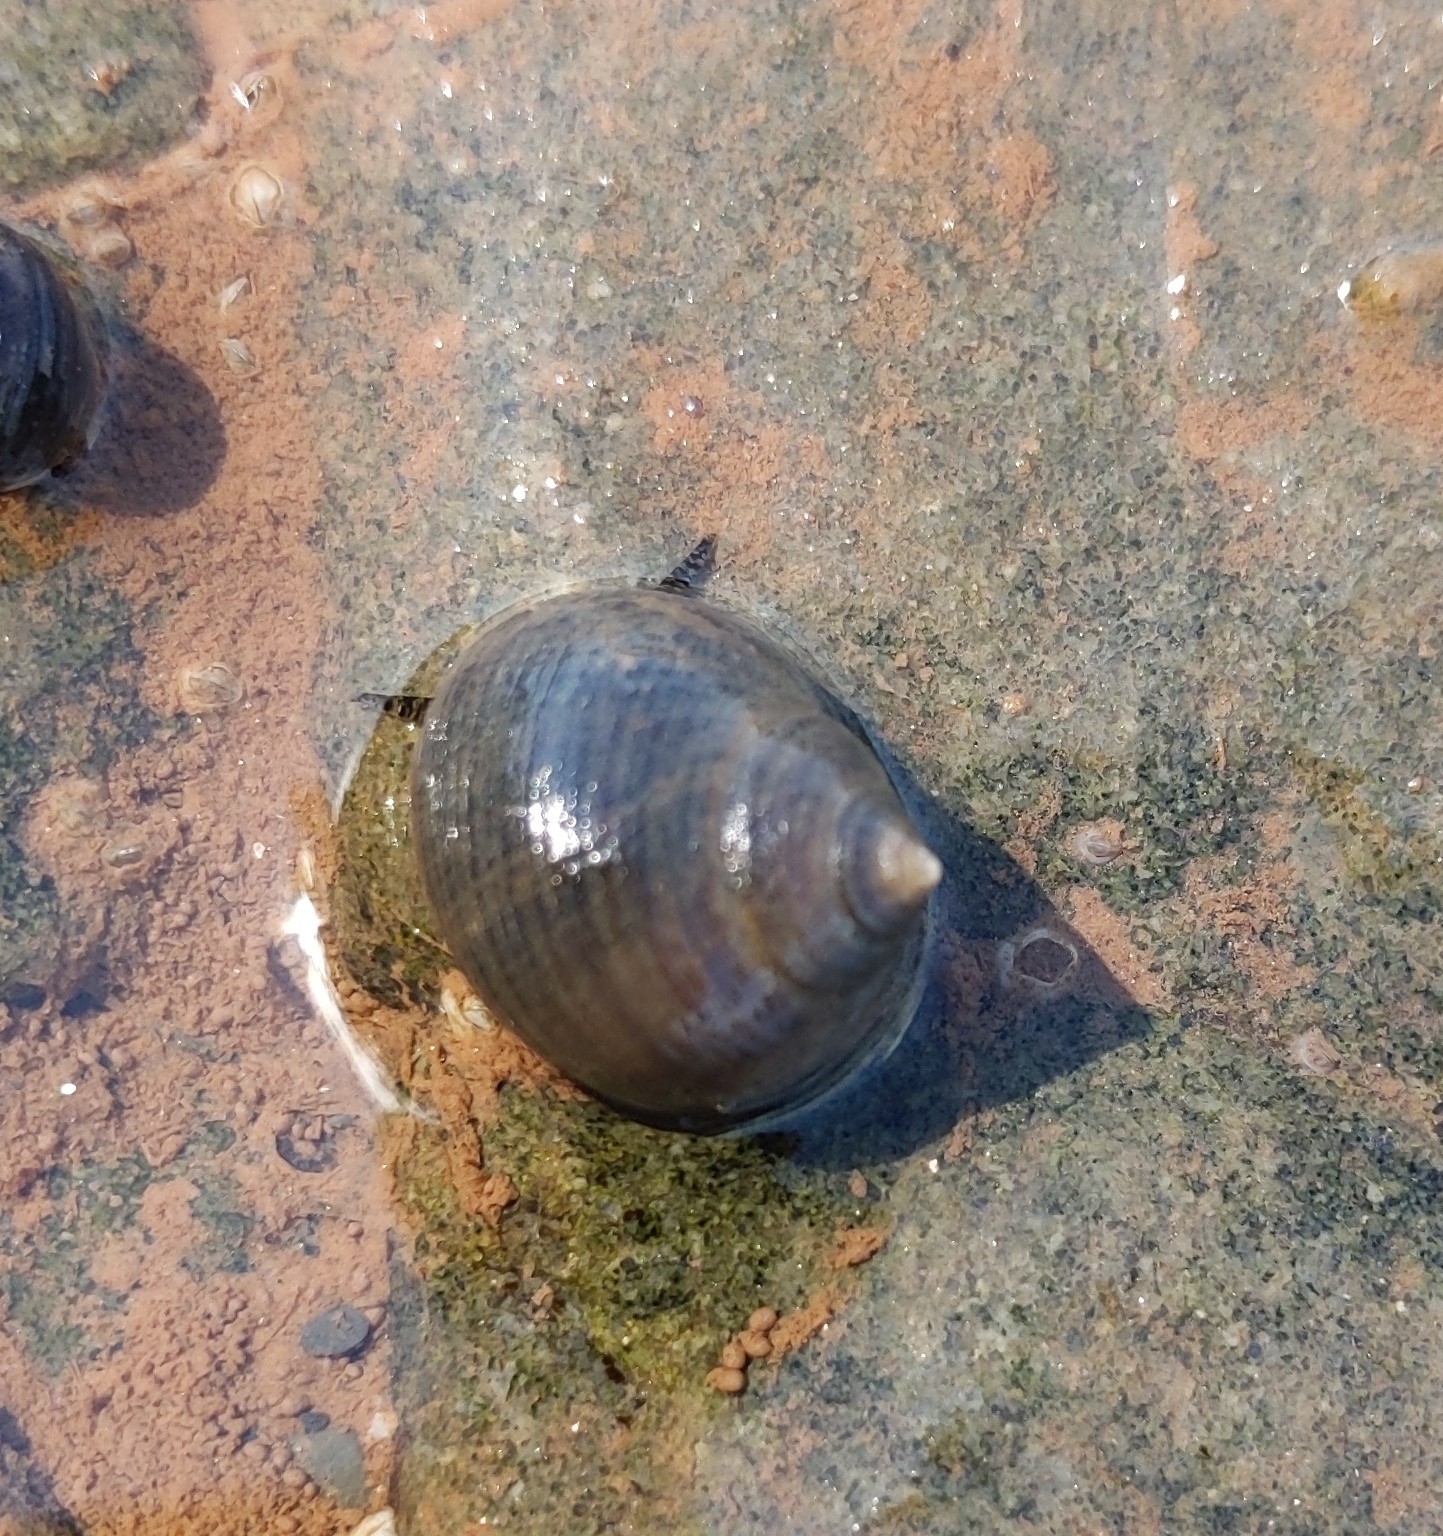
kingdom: Animalia
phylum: Mollusca
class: Gastropoda
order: Littorinimorpha
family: Littorinidae
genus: Littorina
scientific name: Littorina littorea
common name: Common periwinkle
